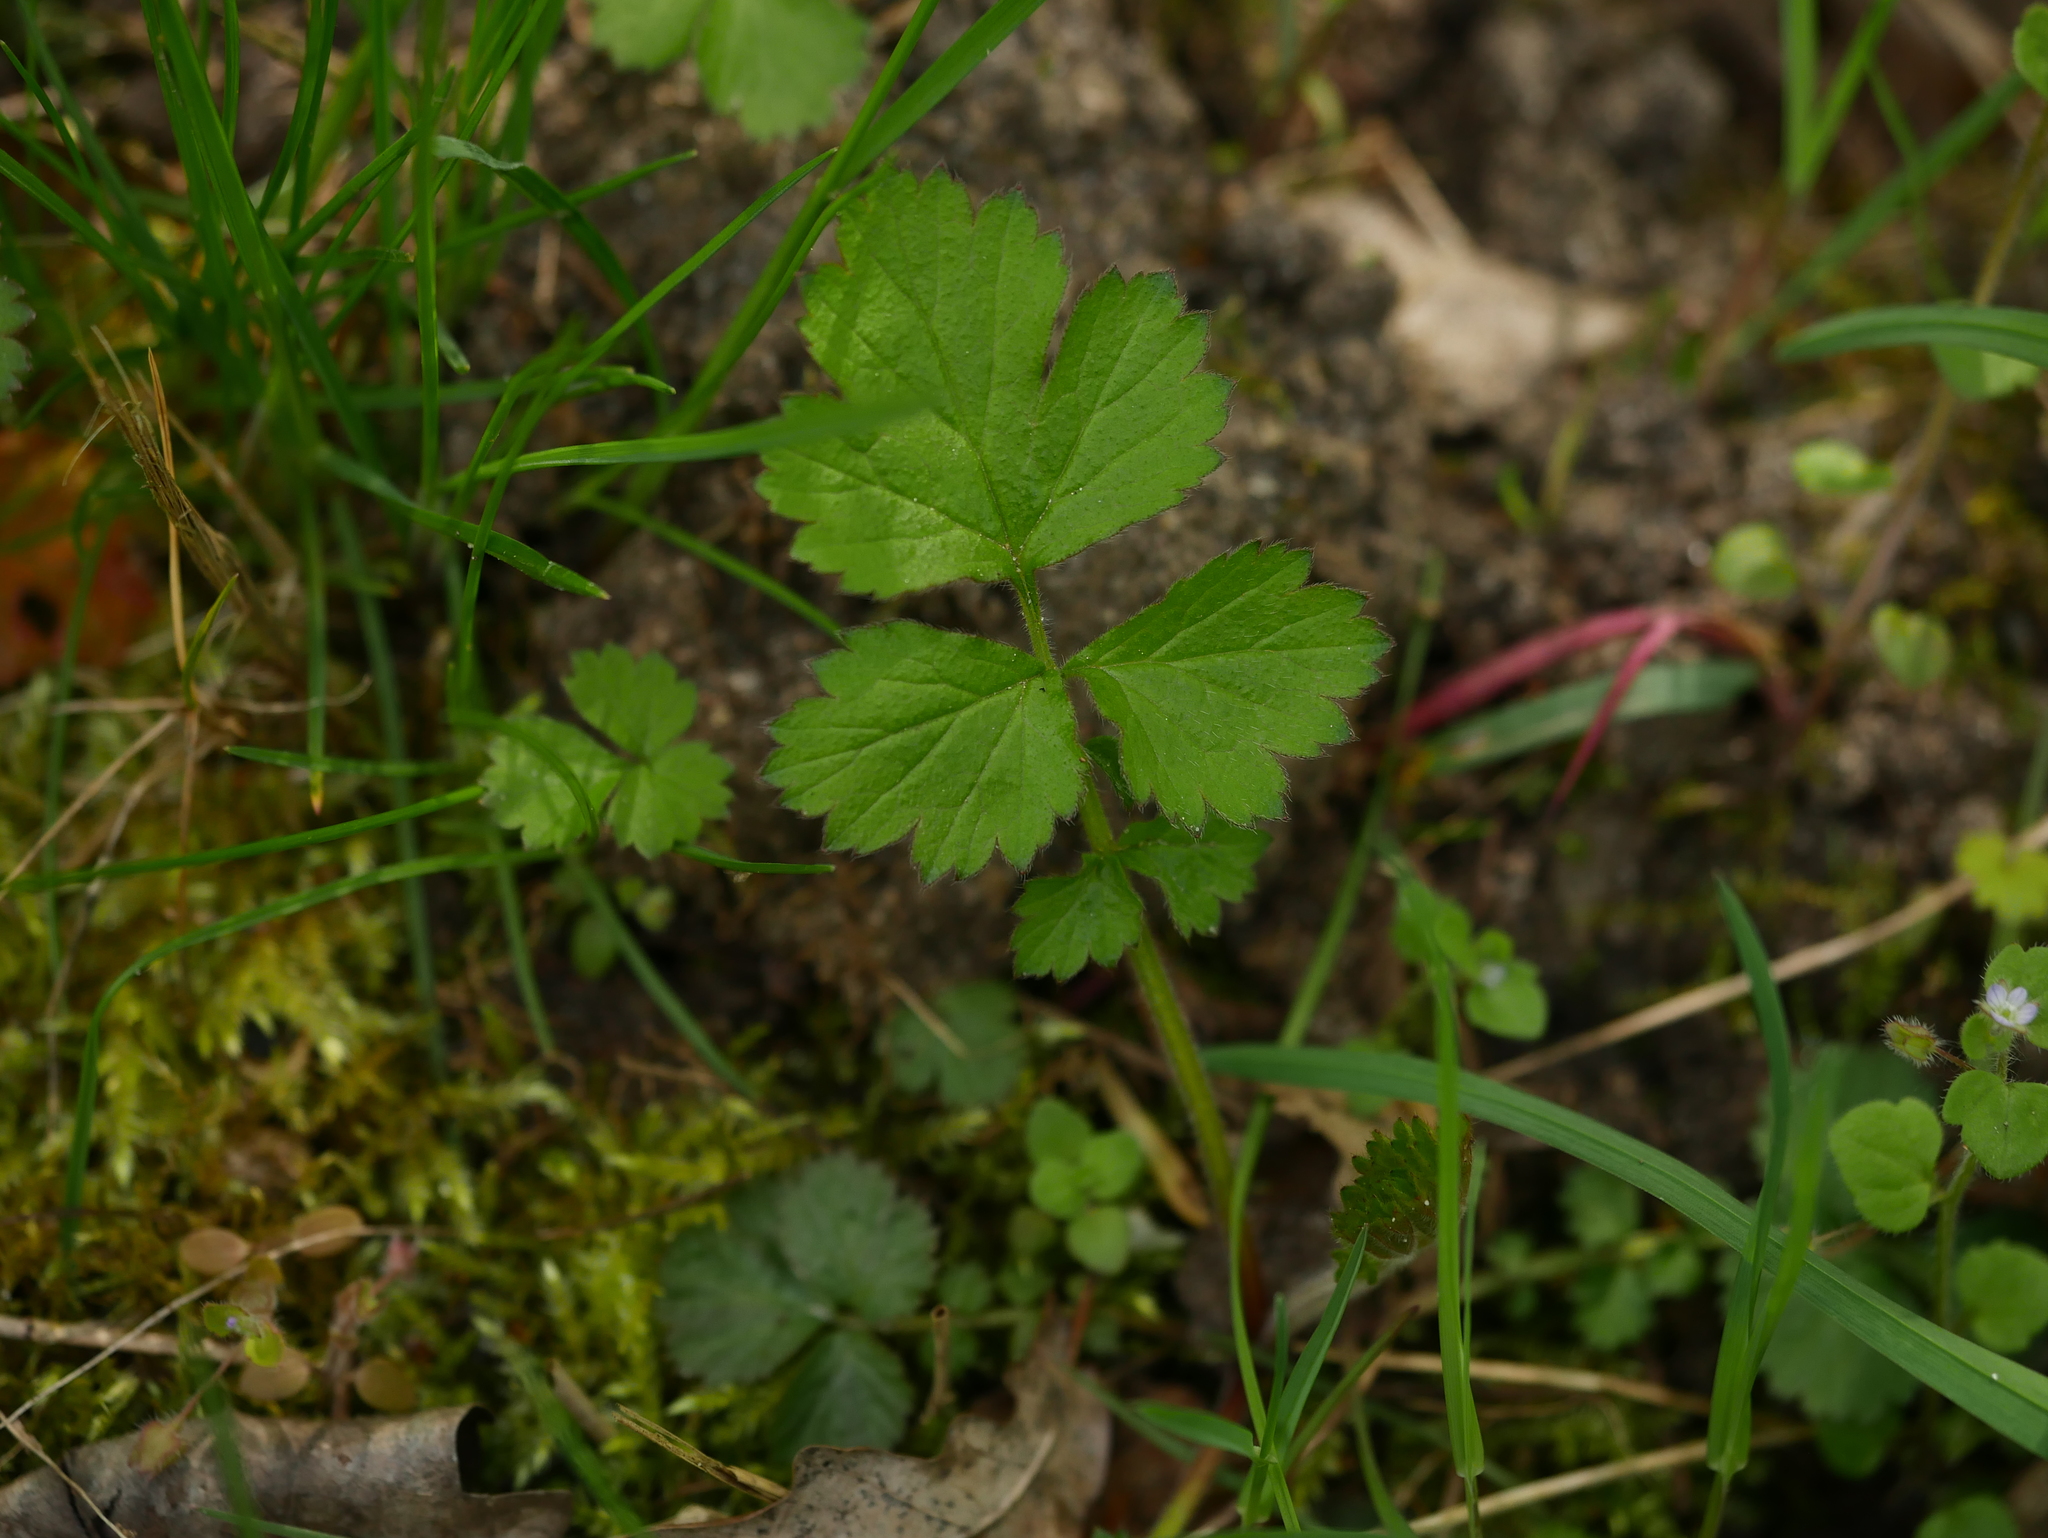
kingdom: Plantae
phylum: Tracheophyta
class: Magnoliopsida
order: Rosales
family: Rosaceae
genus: Geum
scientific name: Geum urbanum
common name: Wood avens
